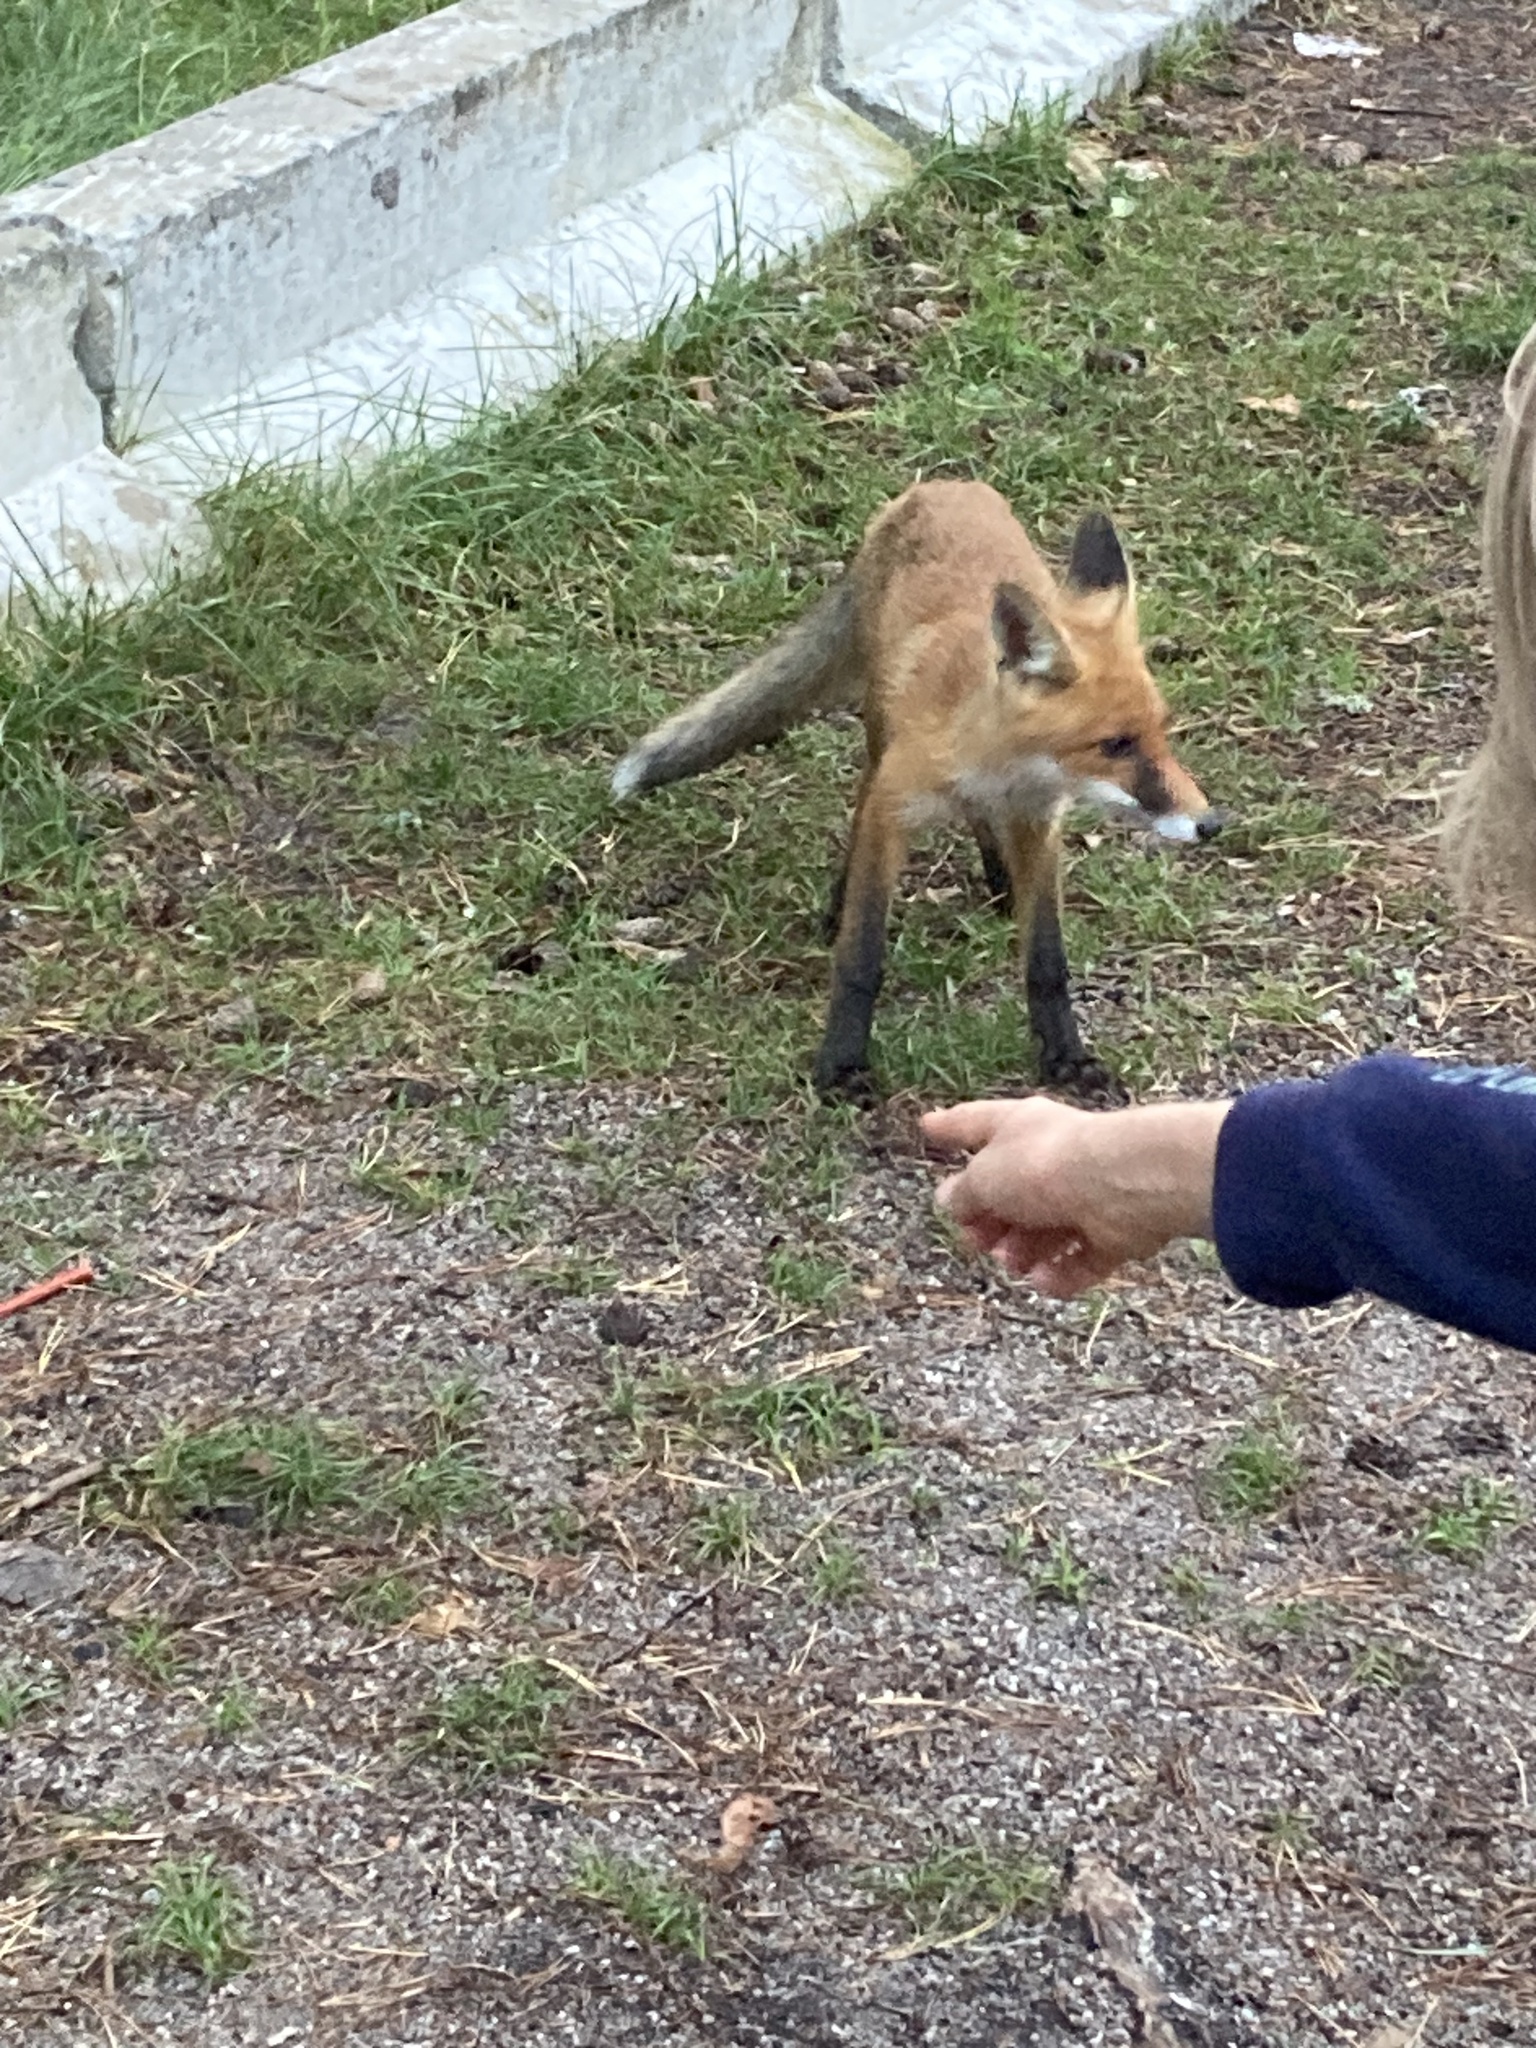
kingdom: Animalia
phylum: Chordata
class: Mammalia
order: Carnivora
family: Canidae
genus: Vulpes
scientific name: Vulpes vulpes
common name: Red fox
